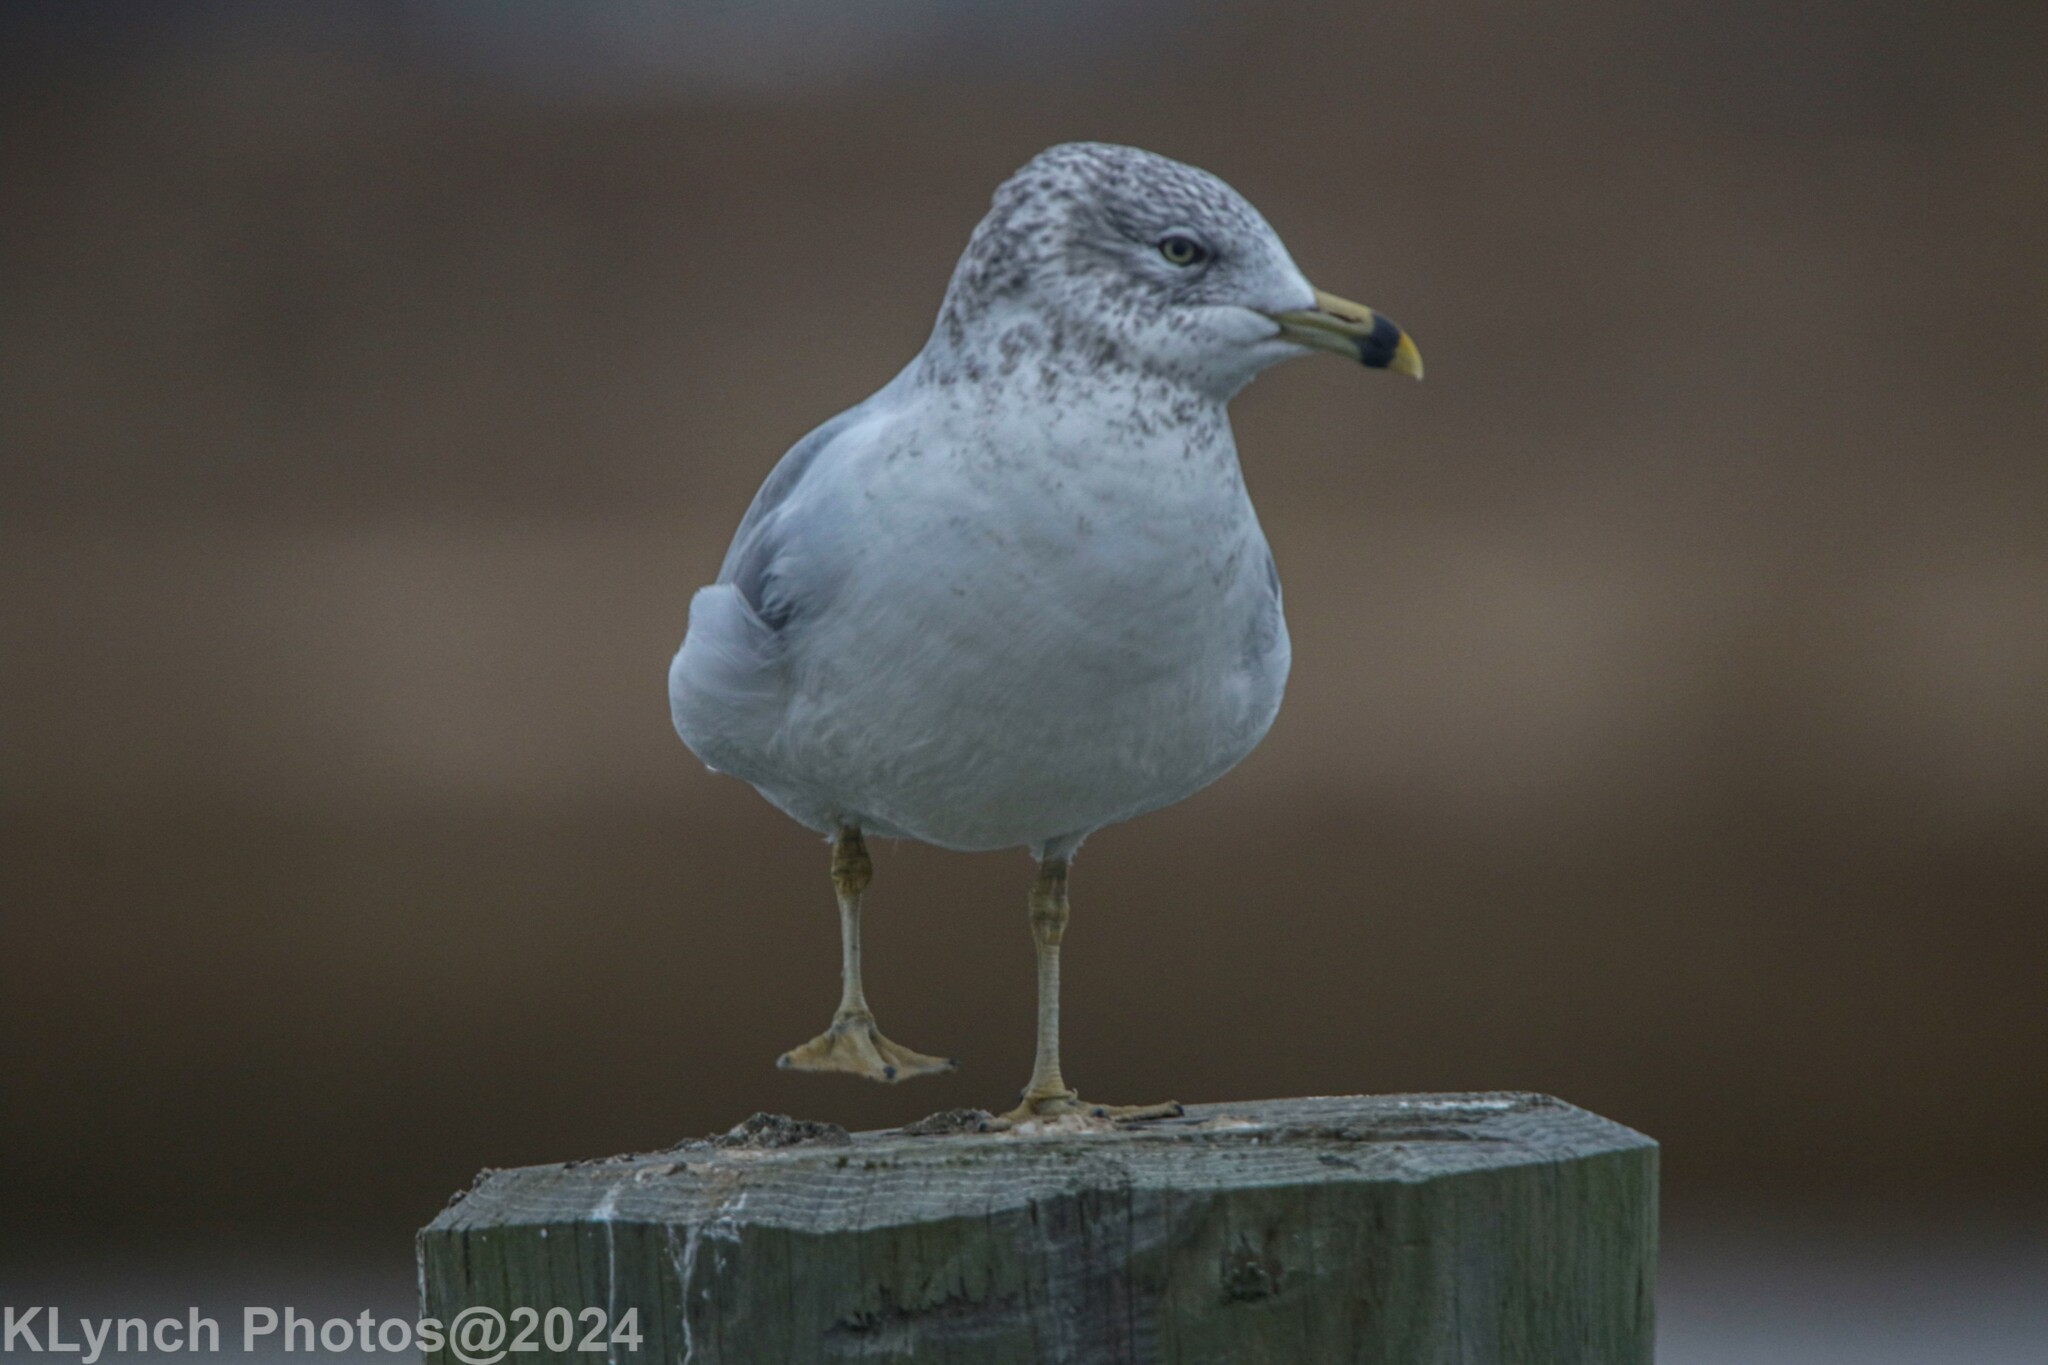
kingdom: Animalia
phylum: Chordata
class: Aves
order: Charadriiformes
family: Laridae
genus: Larus
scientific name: Larus delawarensis
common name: Ring-billed gull
